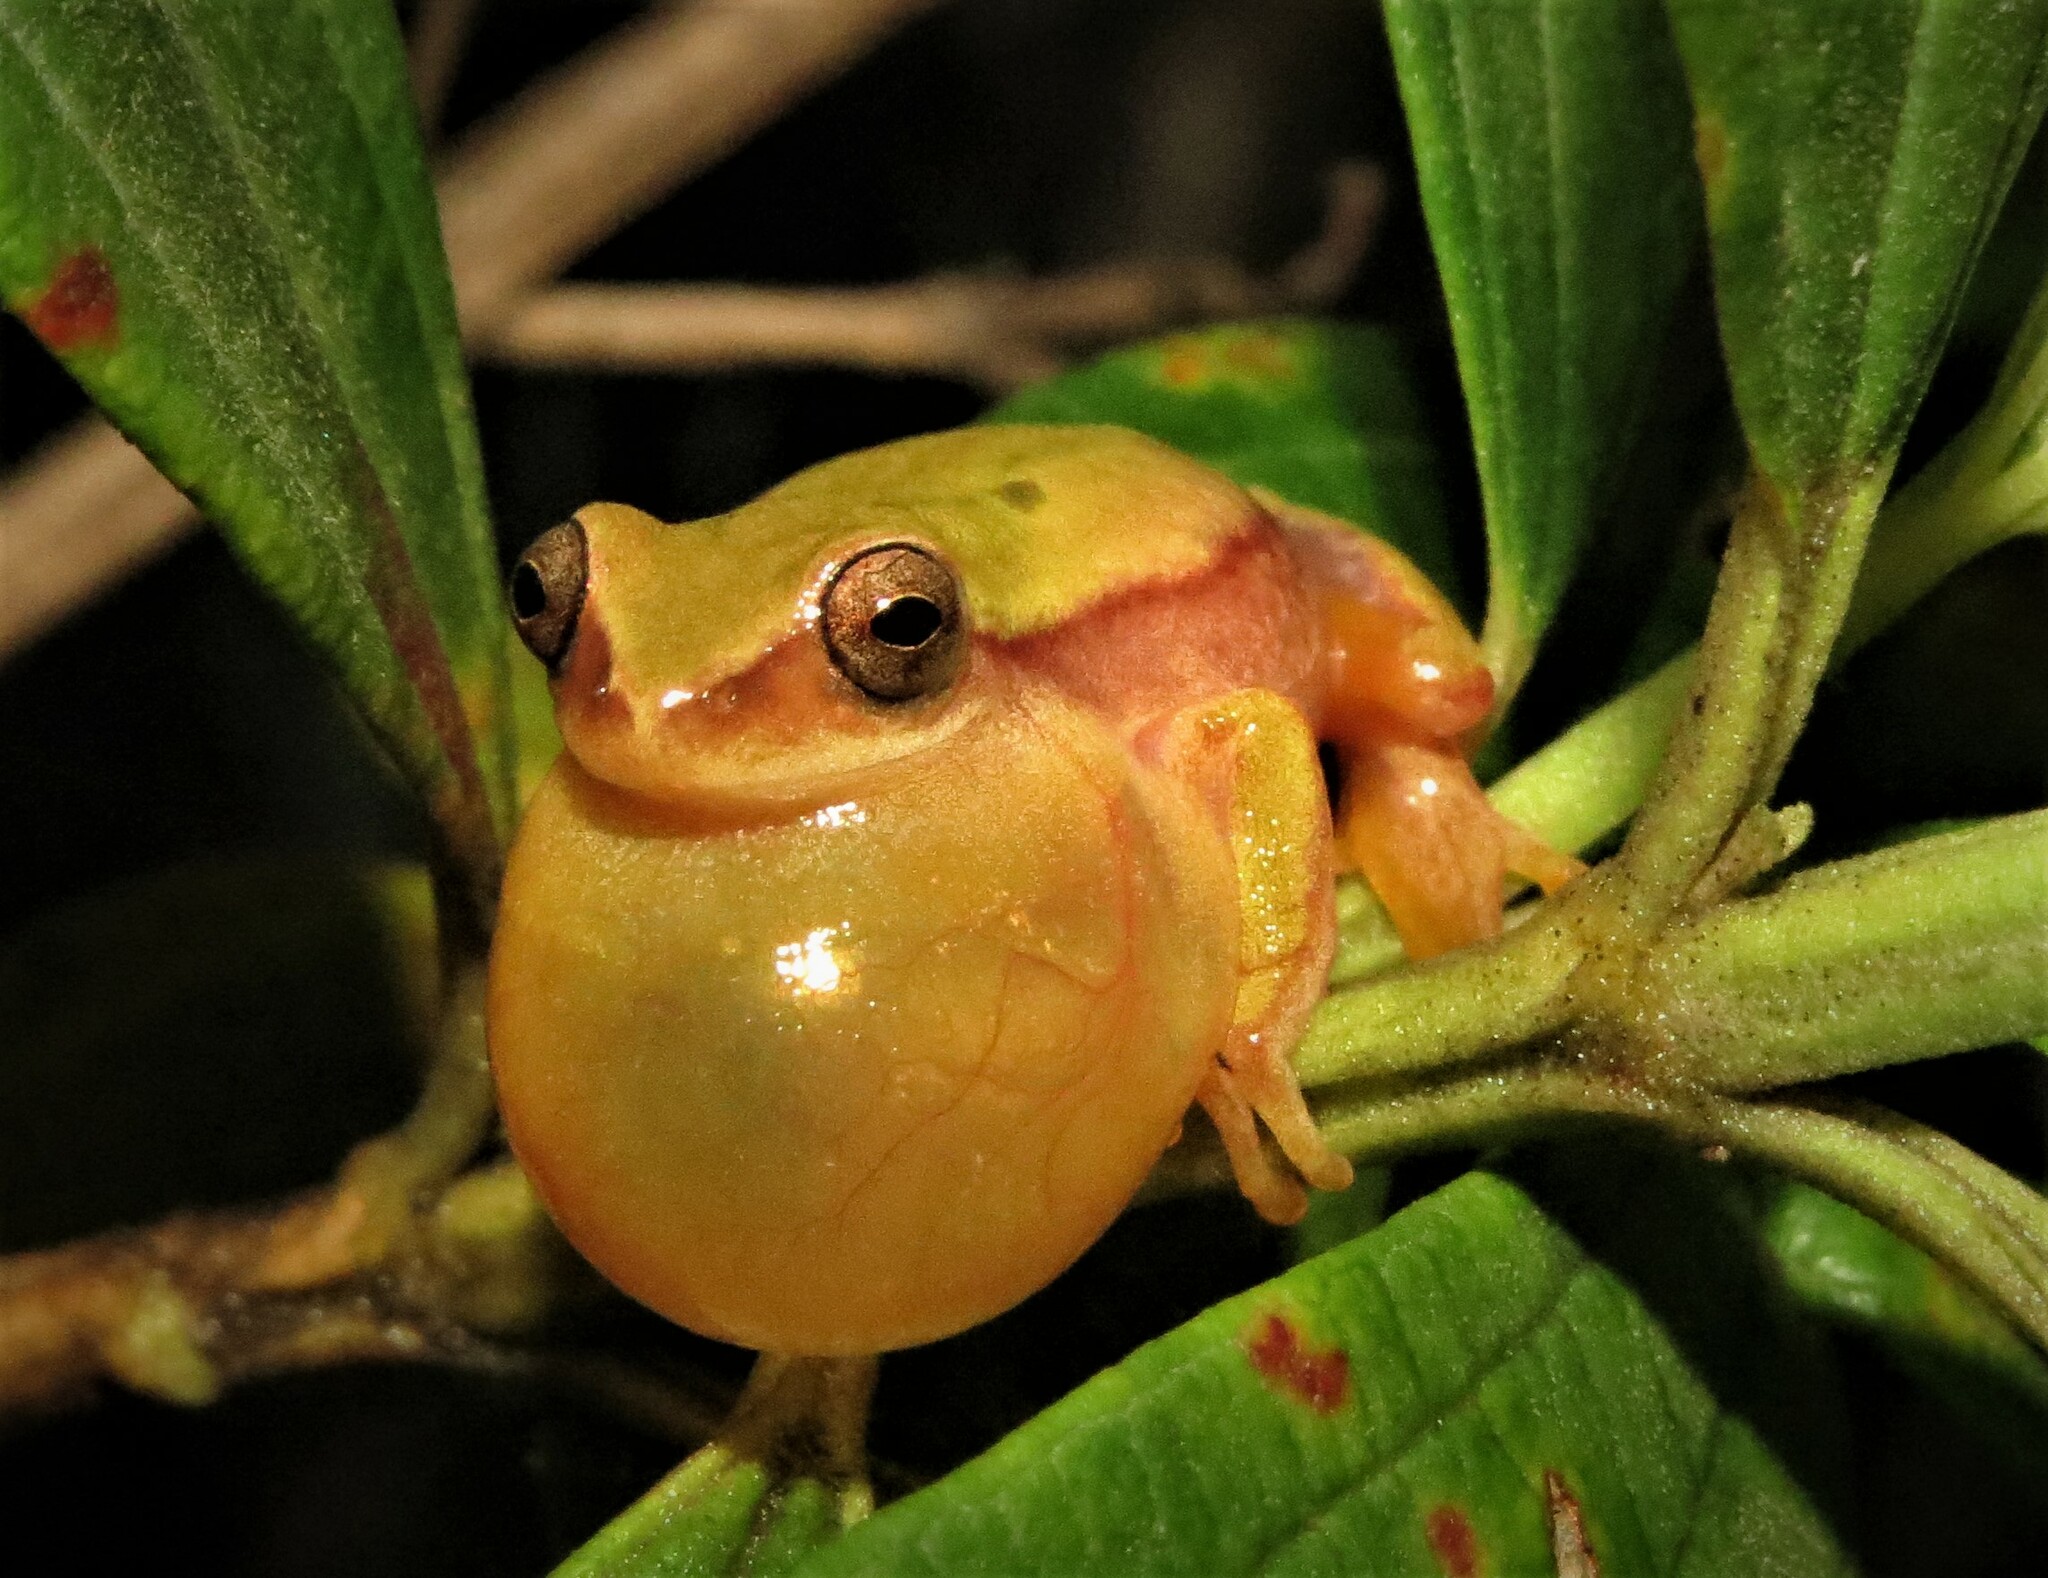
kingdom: Animalia
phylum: Chordata
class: Amphibia
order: Anura
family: Hylidae
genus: Dendropsophus
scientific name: Dendropsophus rubicundulus
